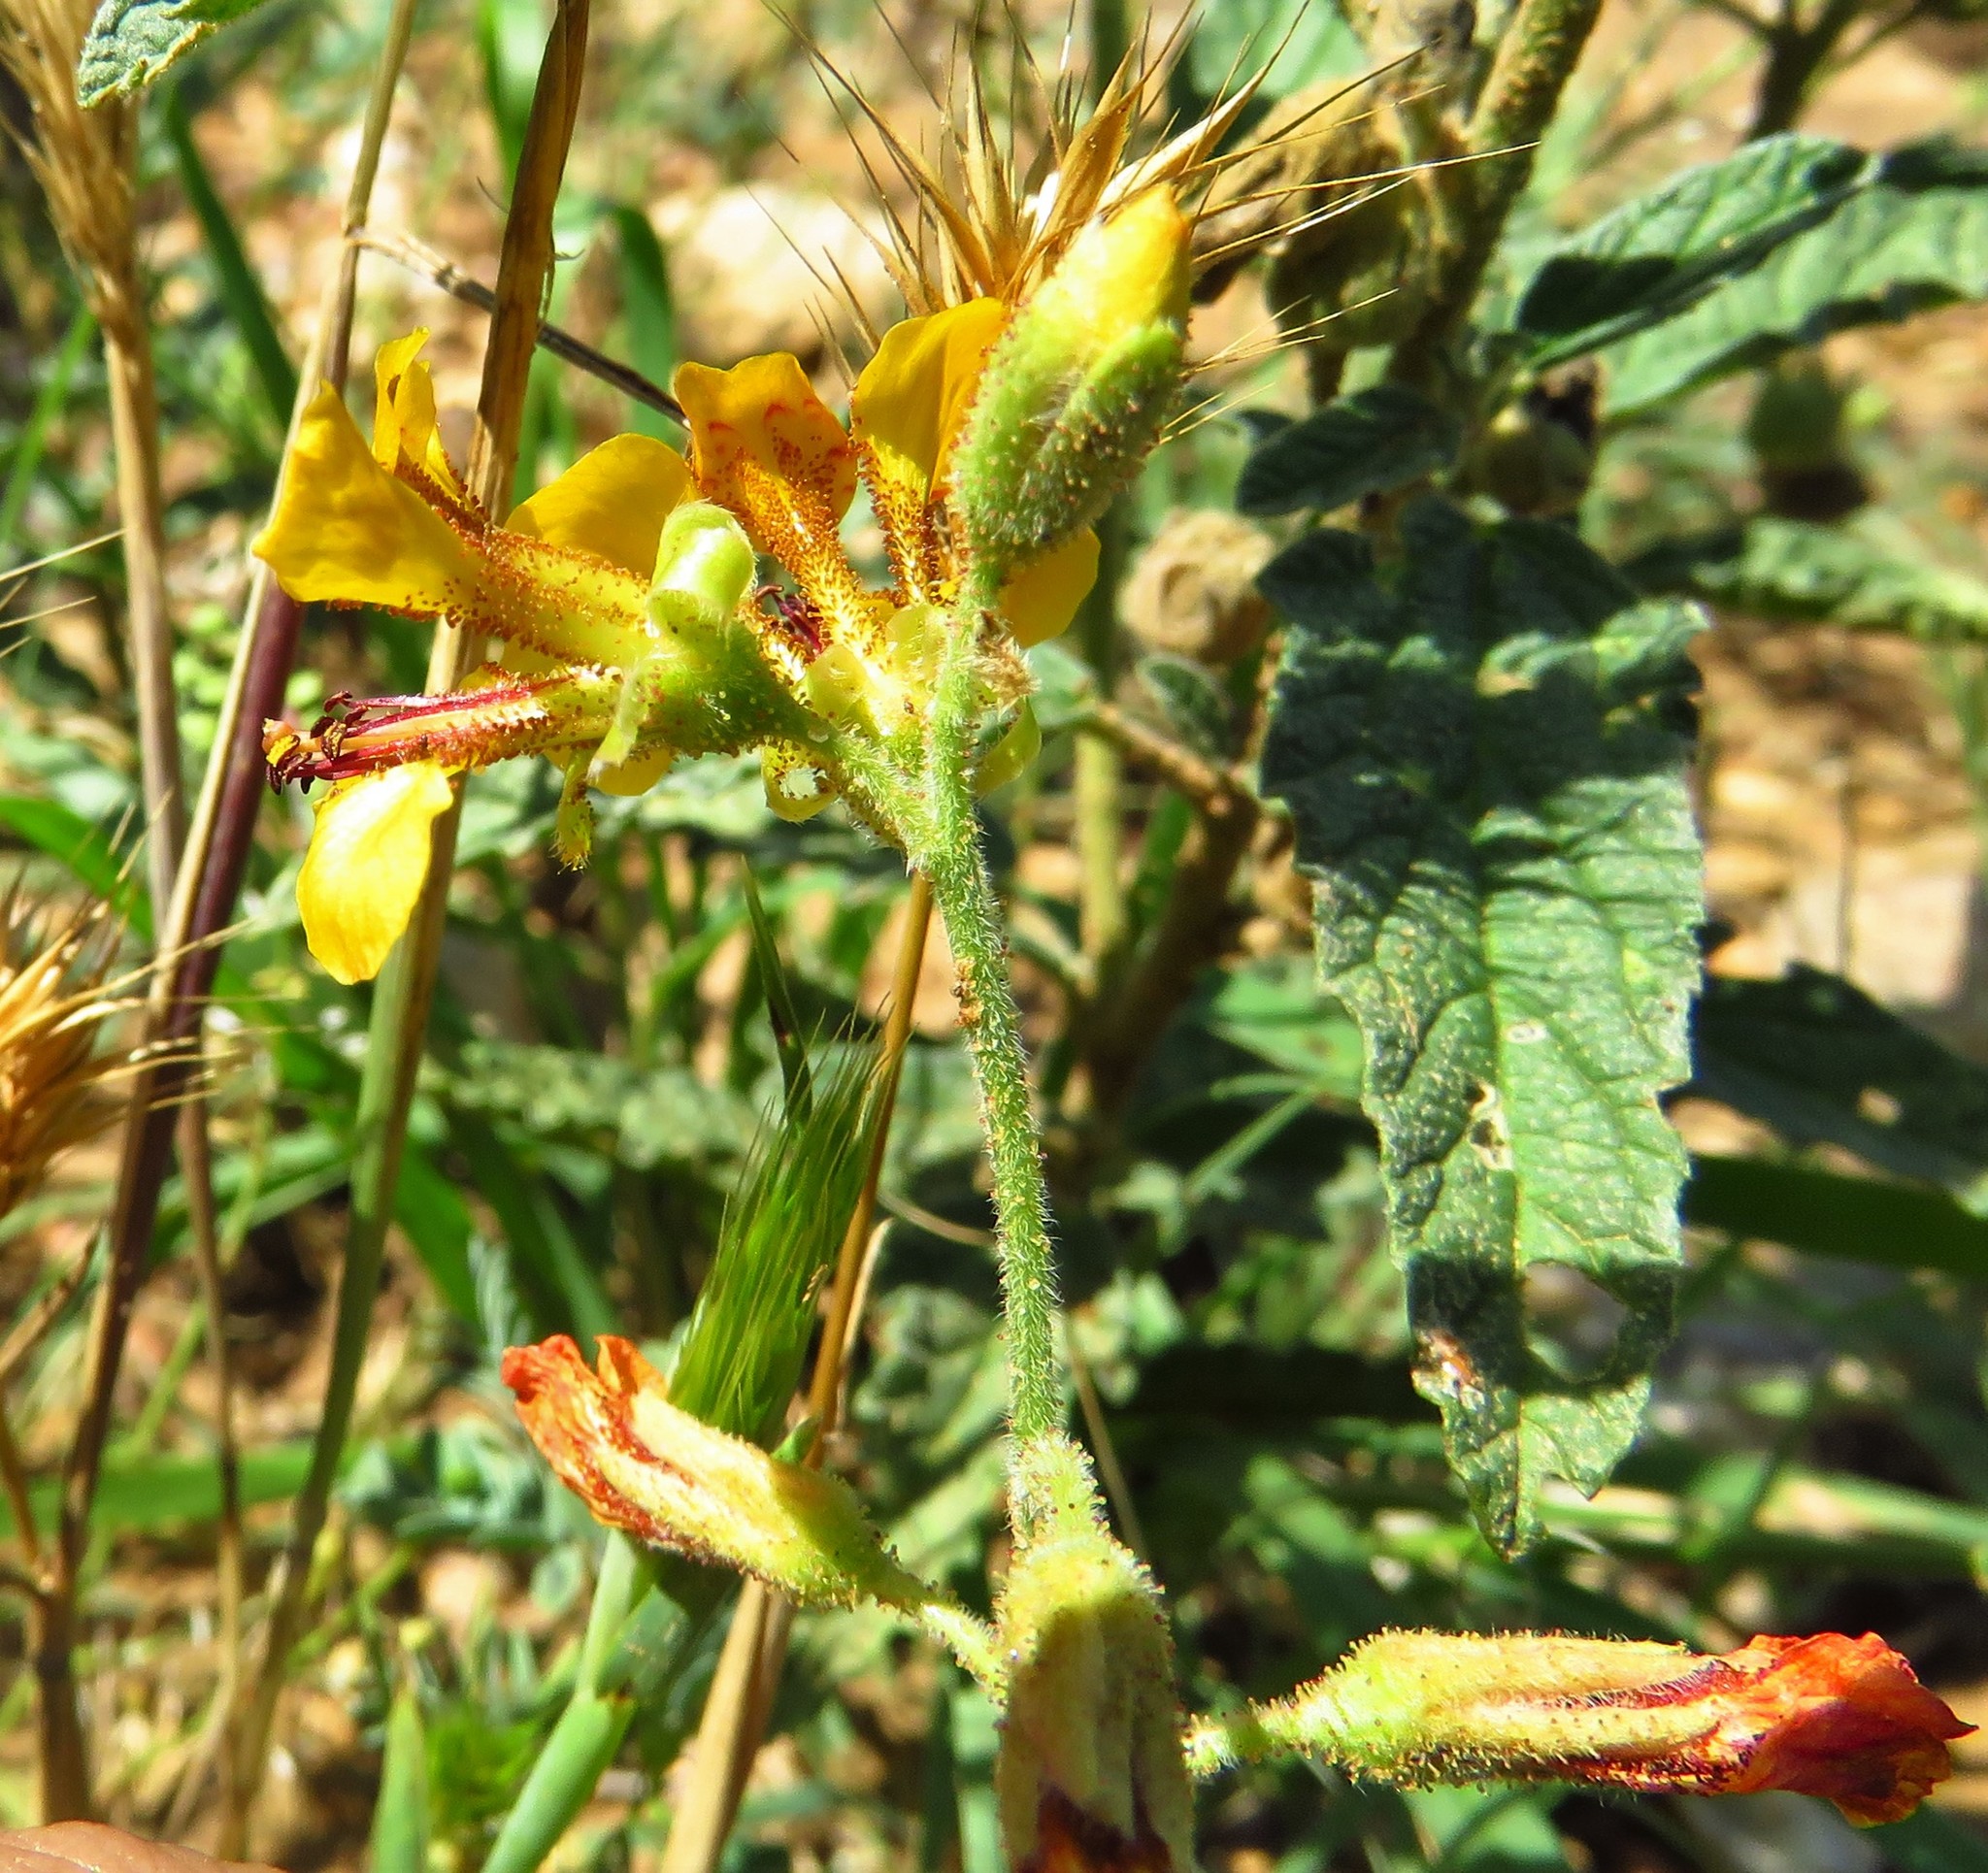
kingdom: Plantae
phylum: Tracheophyta
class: Magnoliopsida
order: Fabales
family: Fabaceae
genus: Hoffmannseggia
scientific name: Hoffmannseggia glauca
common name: Pignut
